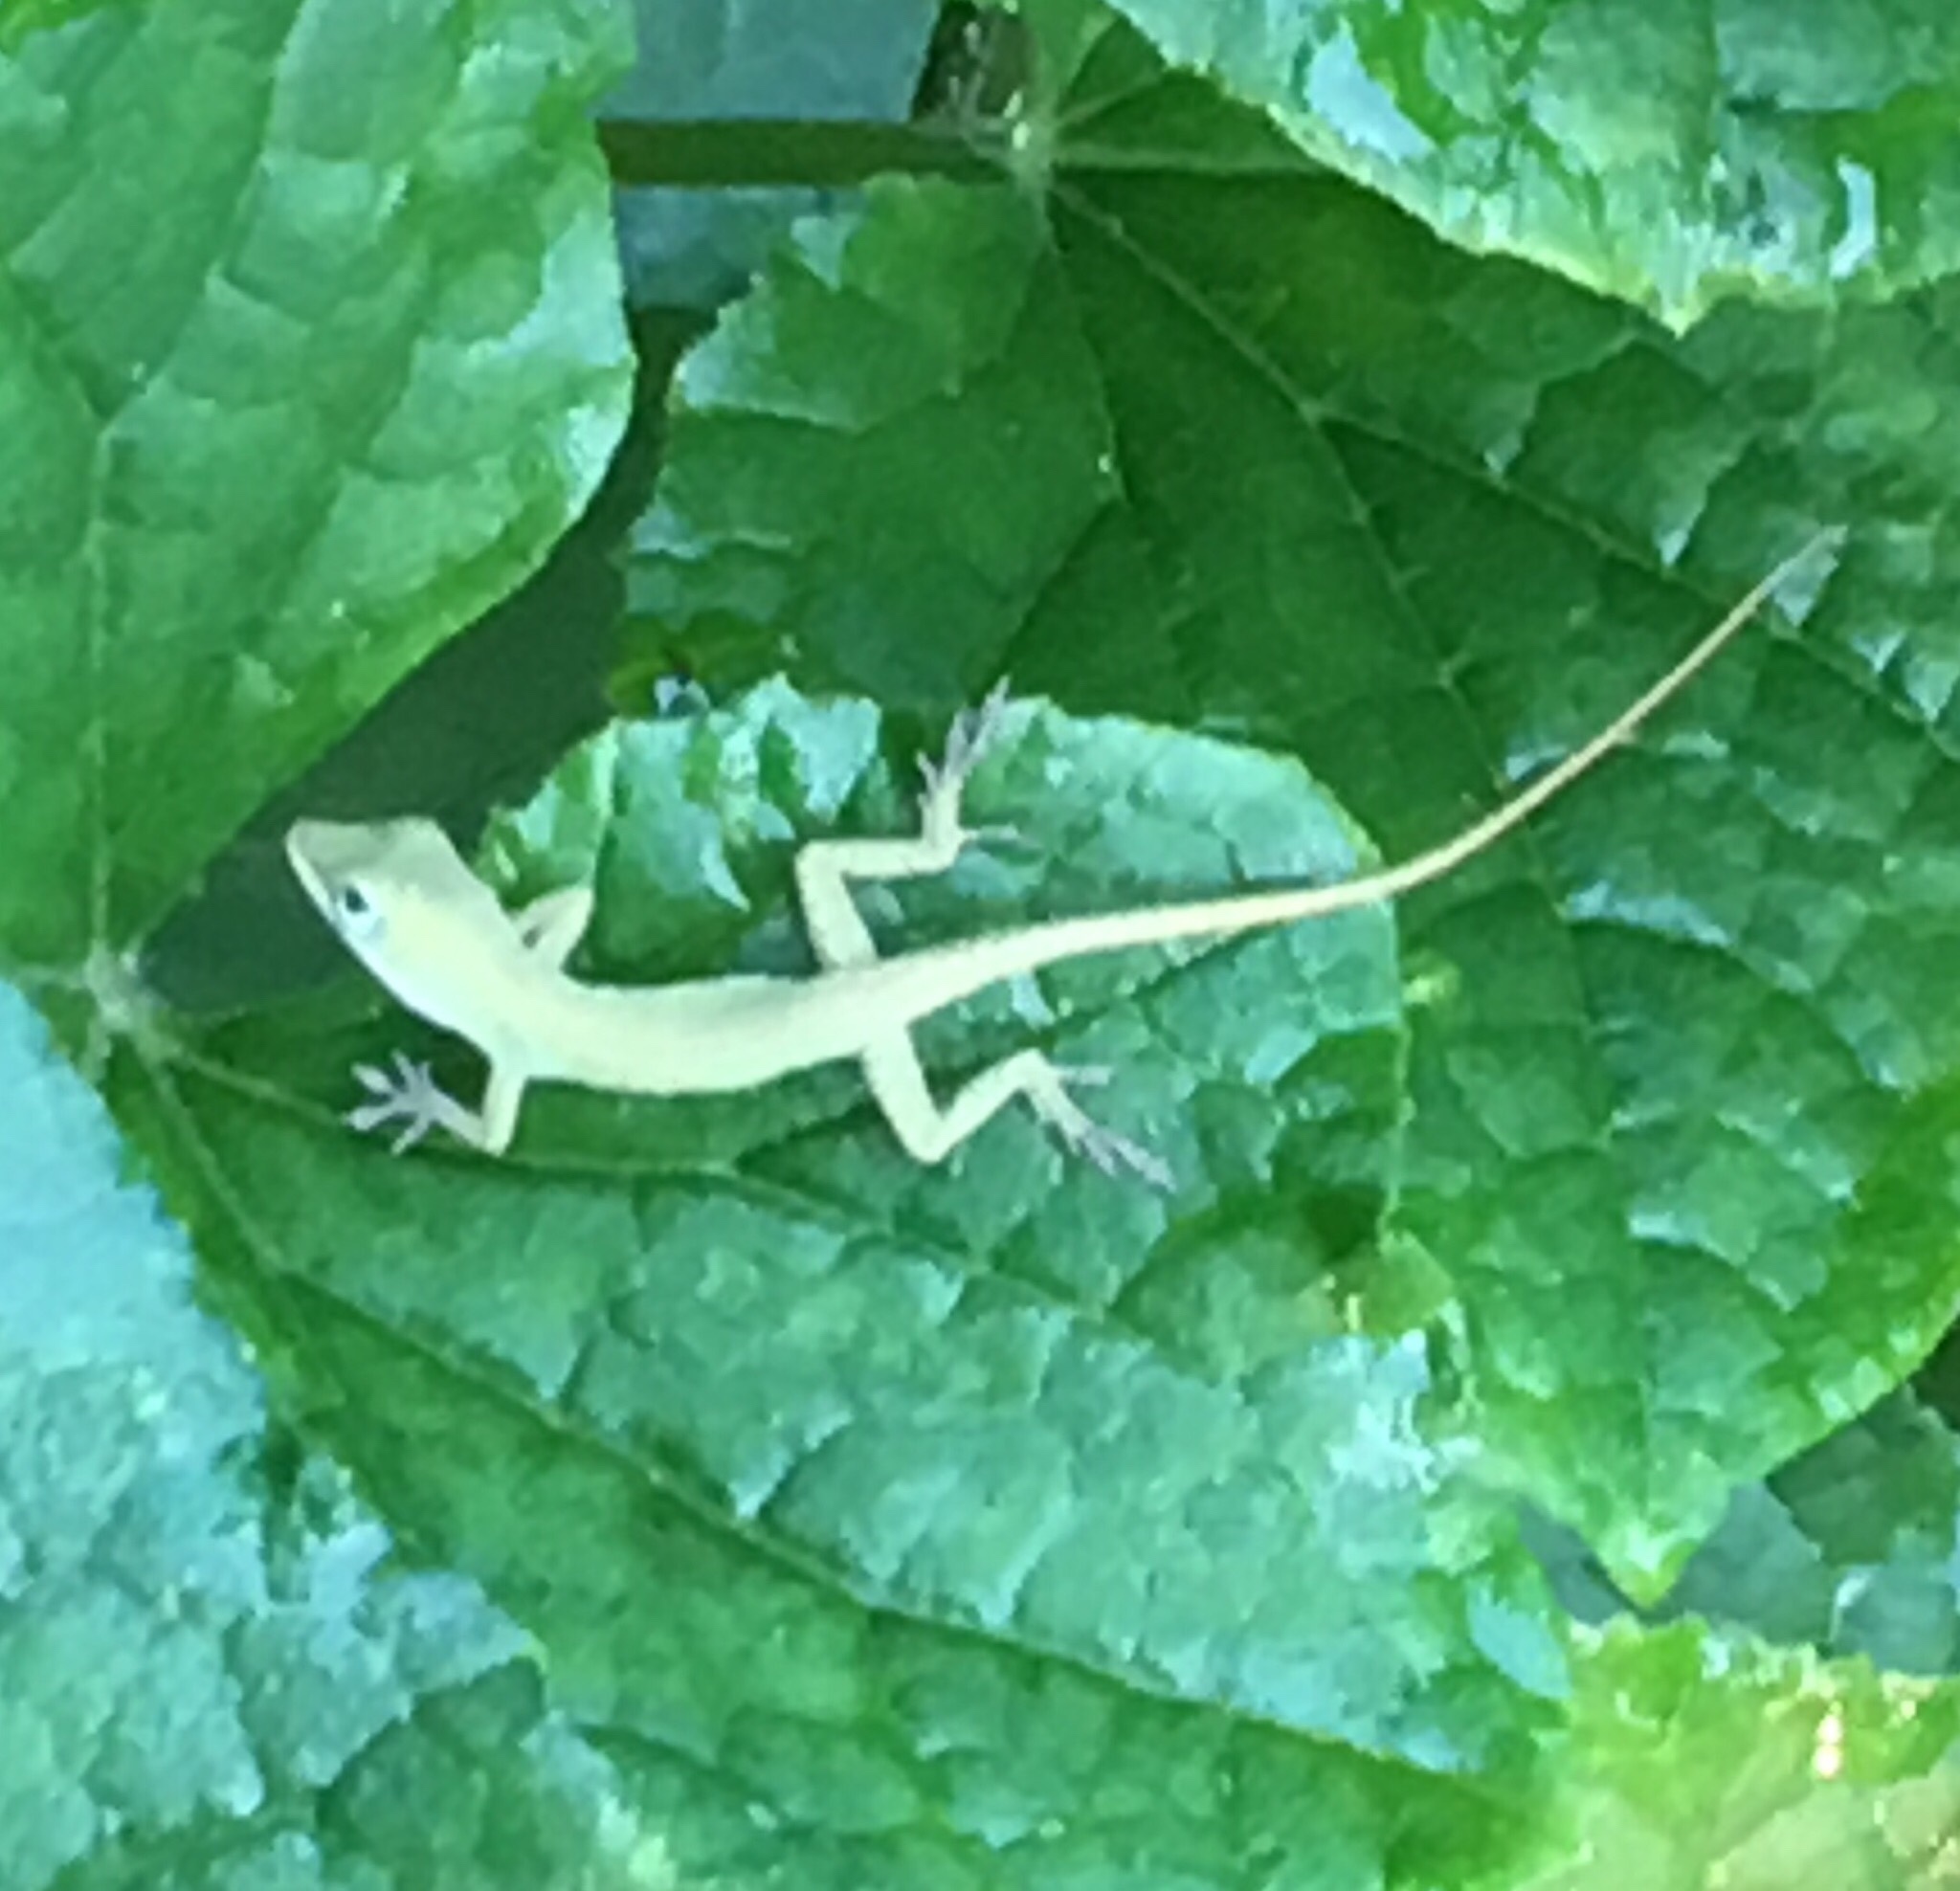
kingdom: Animalia
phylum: Chordata
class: Squamata
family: Dactyloidae
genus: Anolis
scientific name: Anolis carolinensis
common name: Green anole
